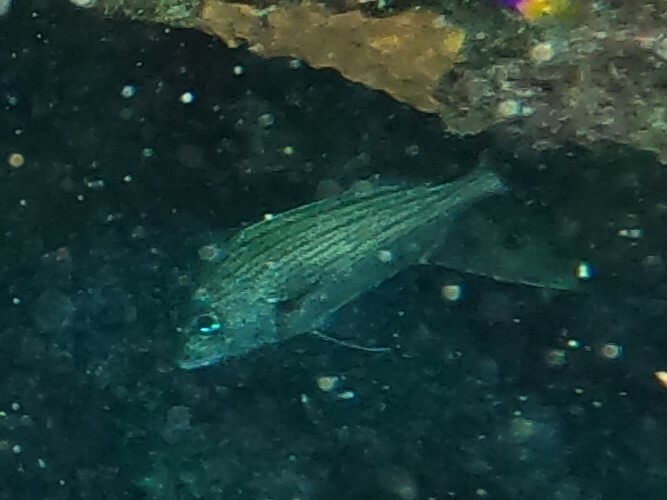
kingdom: Animalia
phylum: Chordata
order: Perciformes
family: Haemulidae
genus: Haemulon
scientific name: Haemulon carbonarium
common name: Caesar grunt
